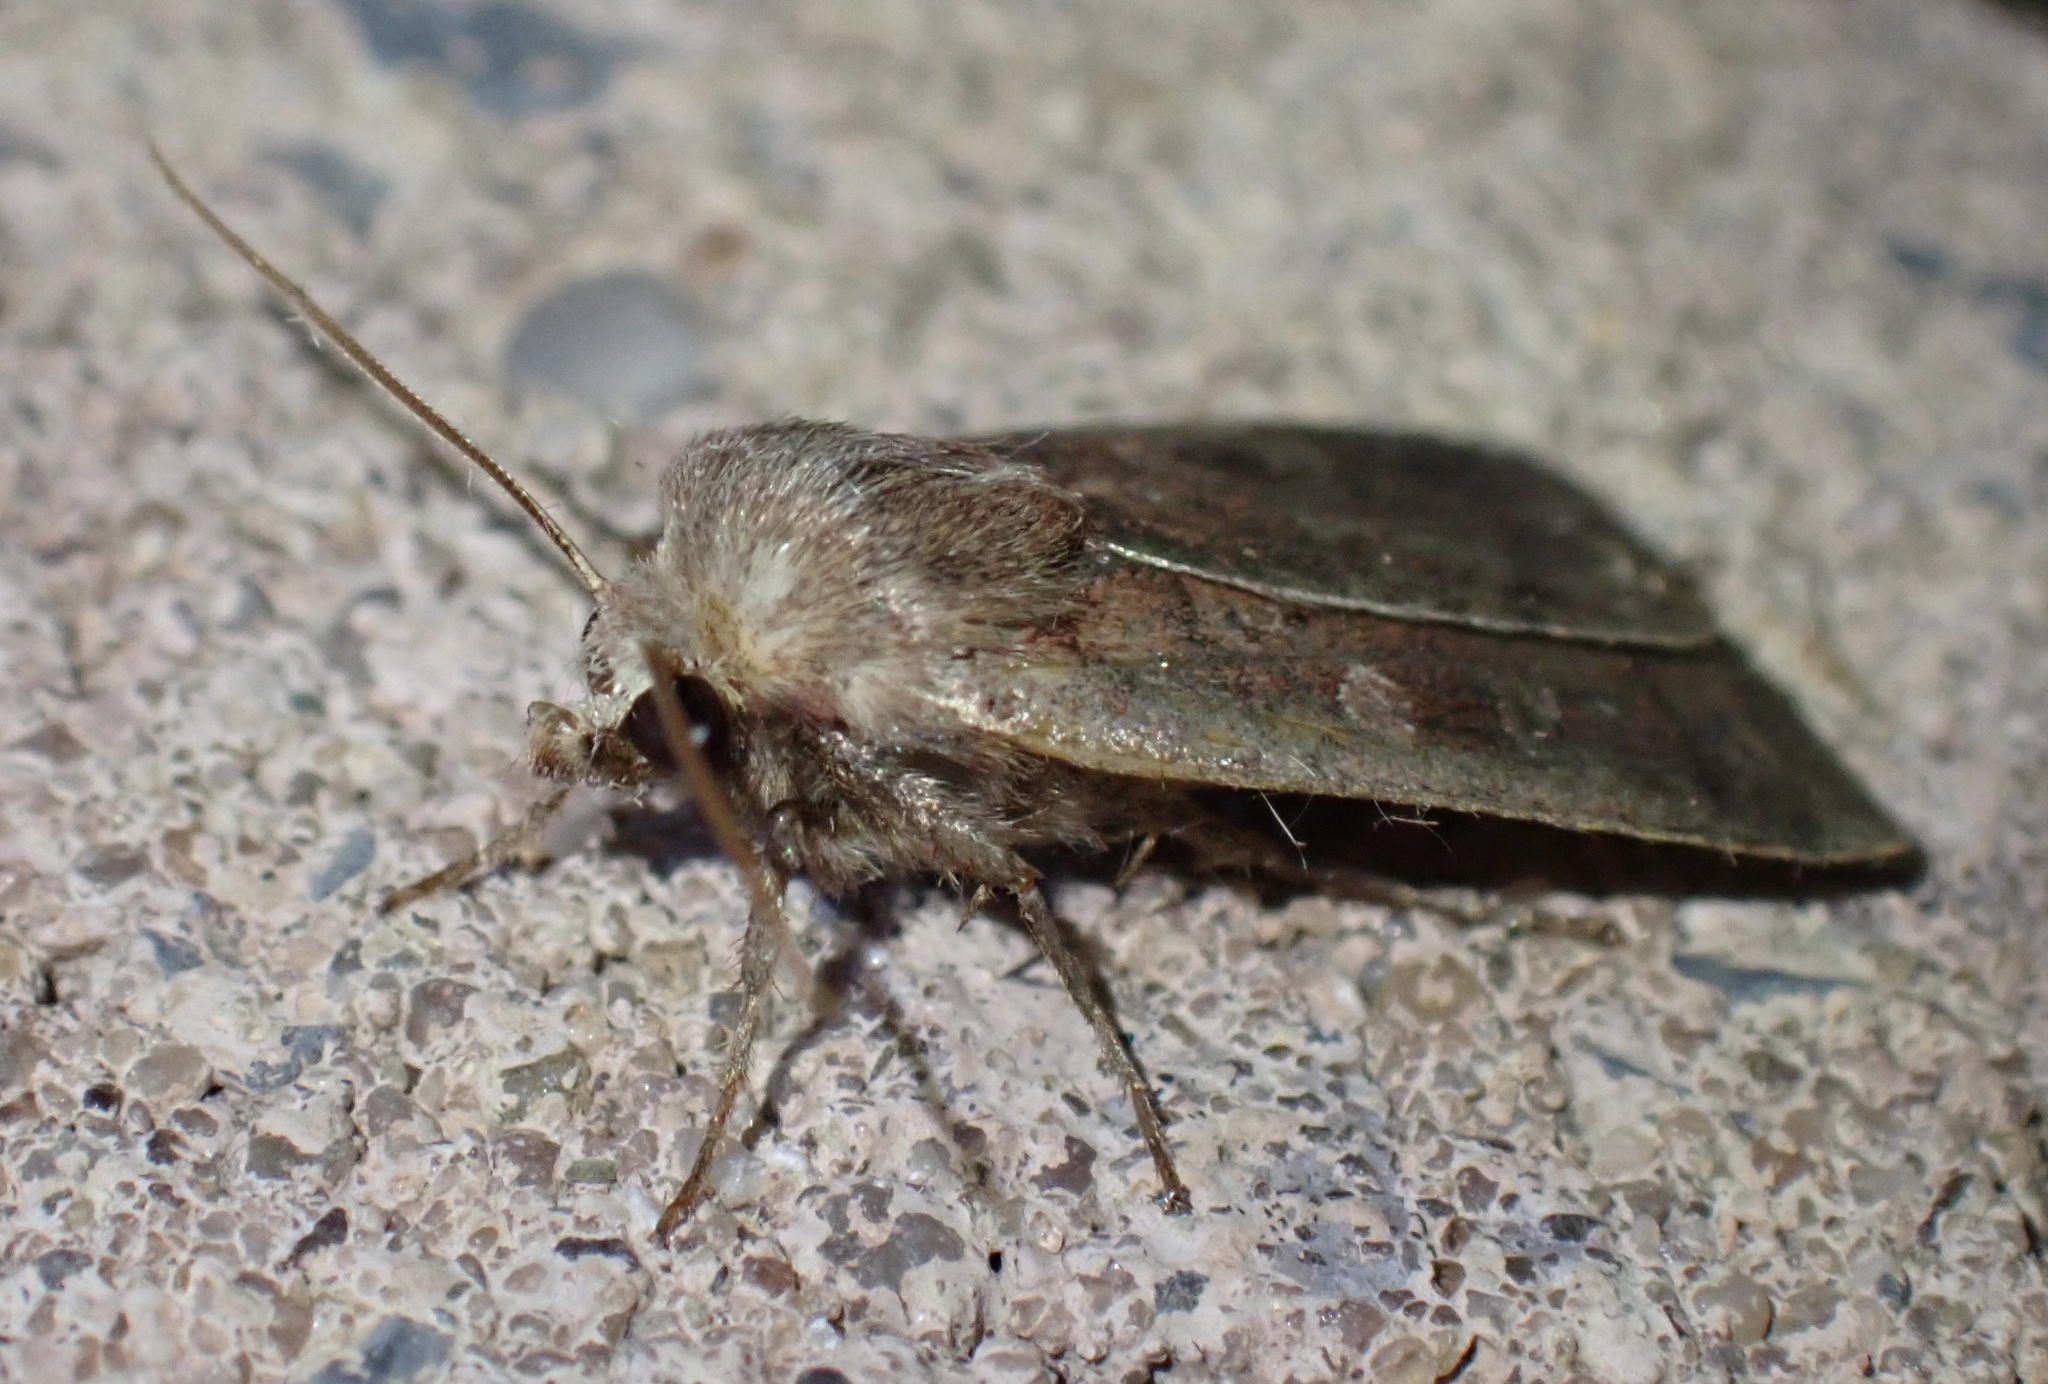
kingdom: Animalia
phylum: Arthropoda
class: Insecta
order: Lepidoptera
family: Noctuidae
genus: Xestia
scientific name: Xestia xanthographa
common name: Square-spot rustic
